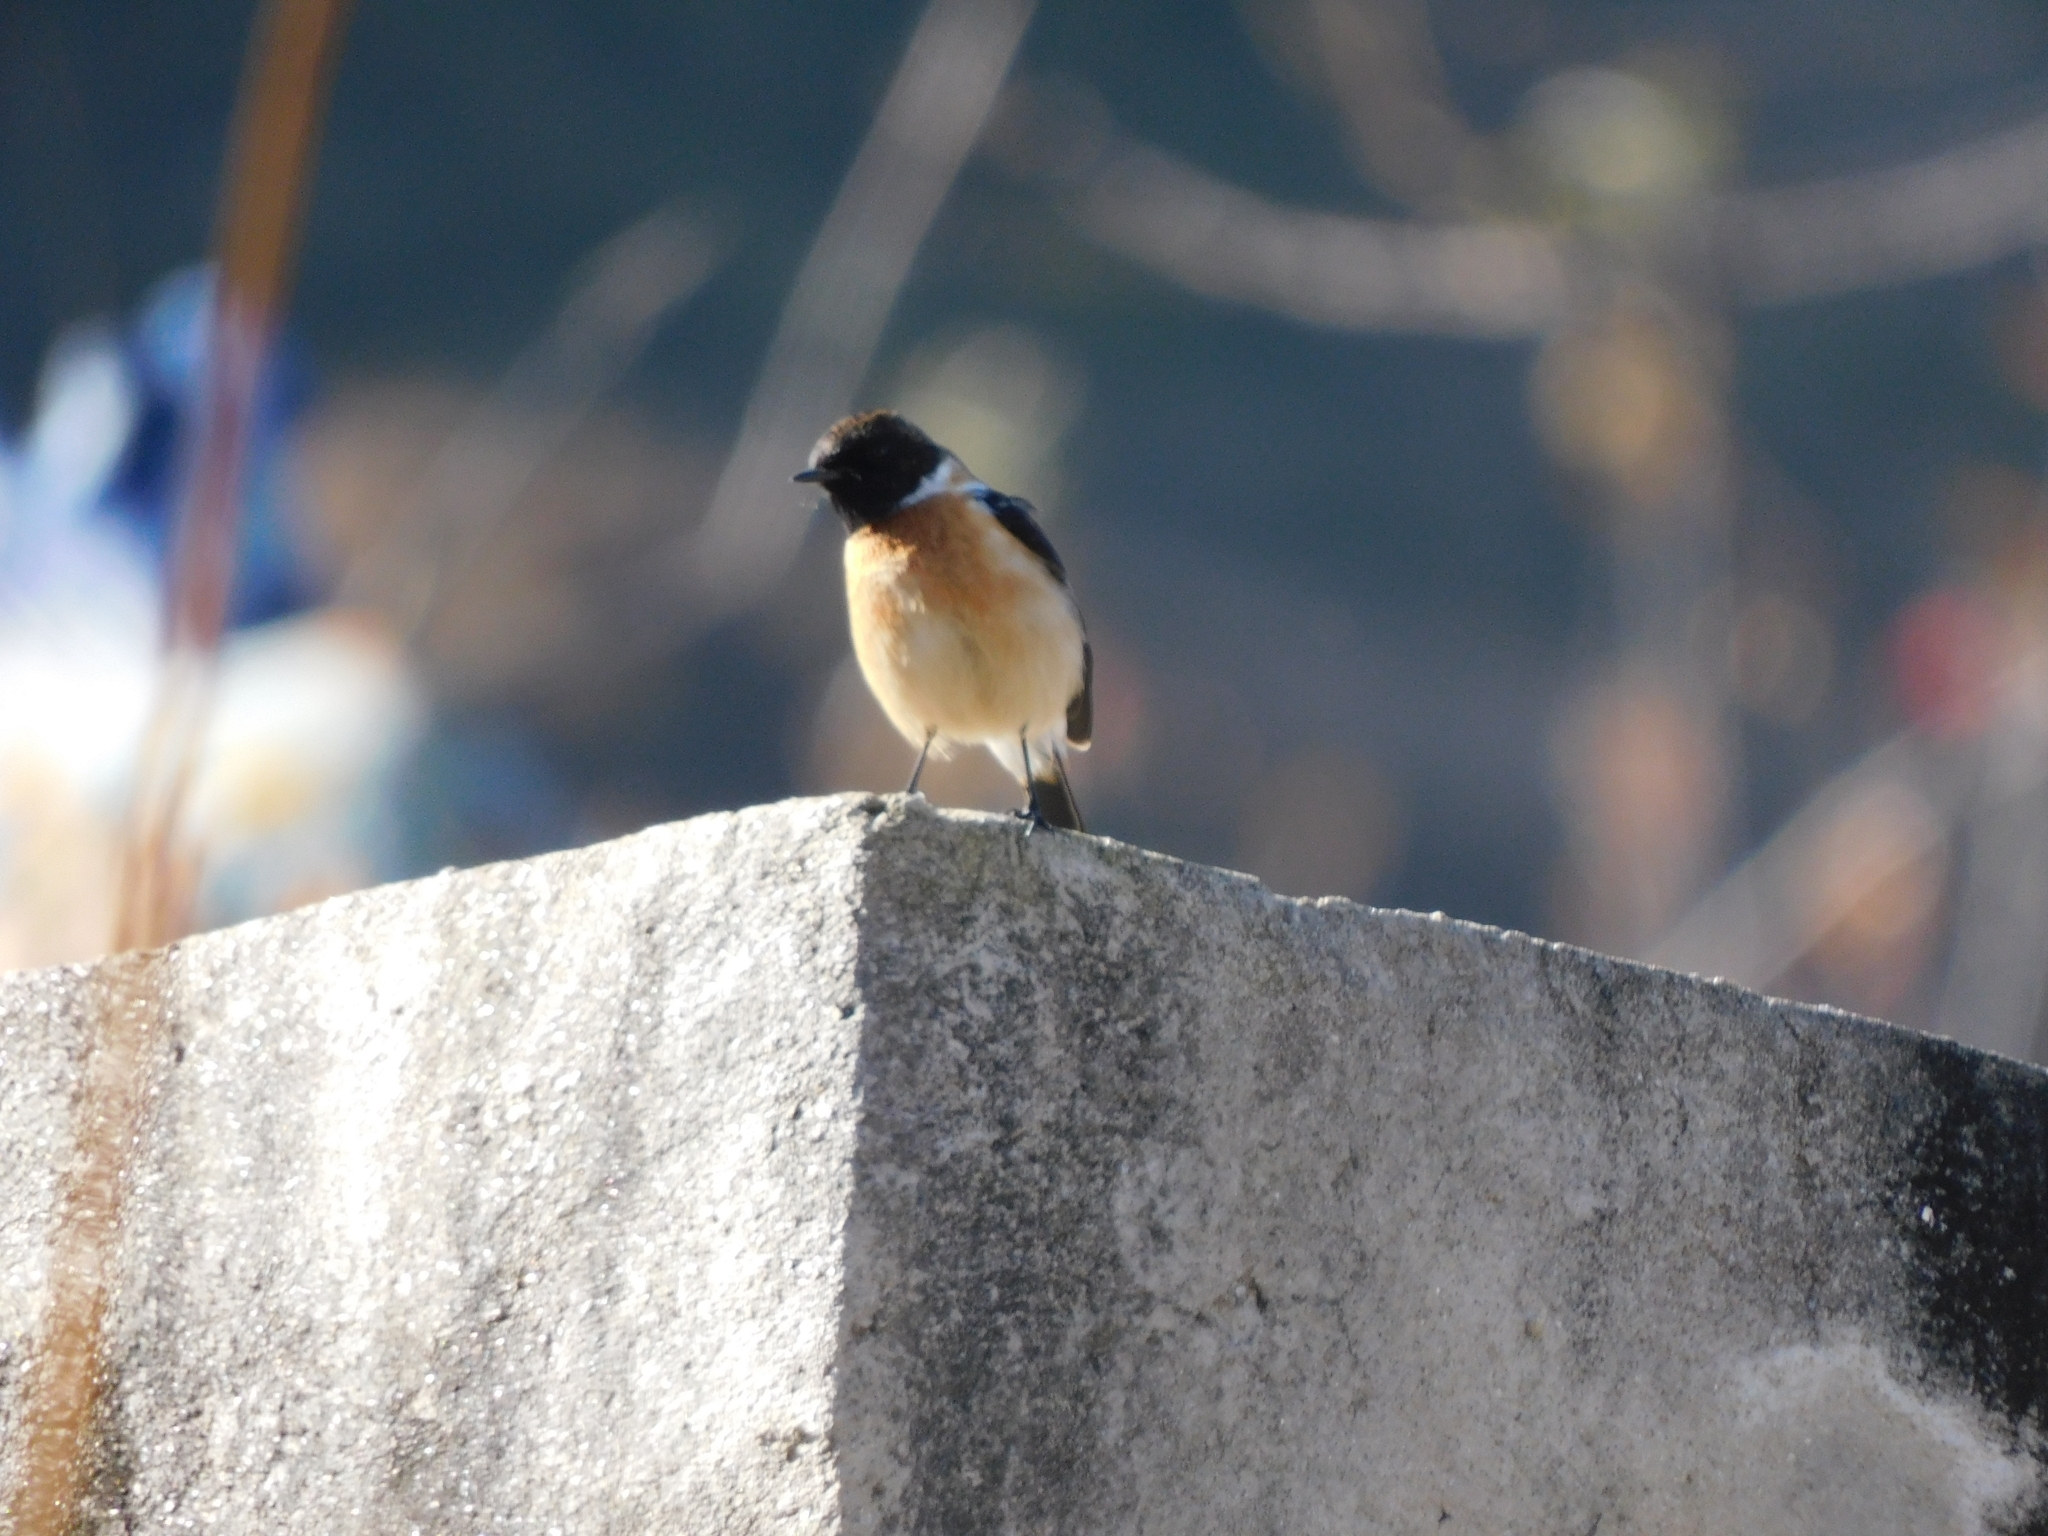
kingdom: Animalia
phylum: Chordata
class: Aves
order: Passeriformes
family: Muscicapidae
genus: Saxicola
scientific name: Saxicola maurus
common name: Siberian stonechat
